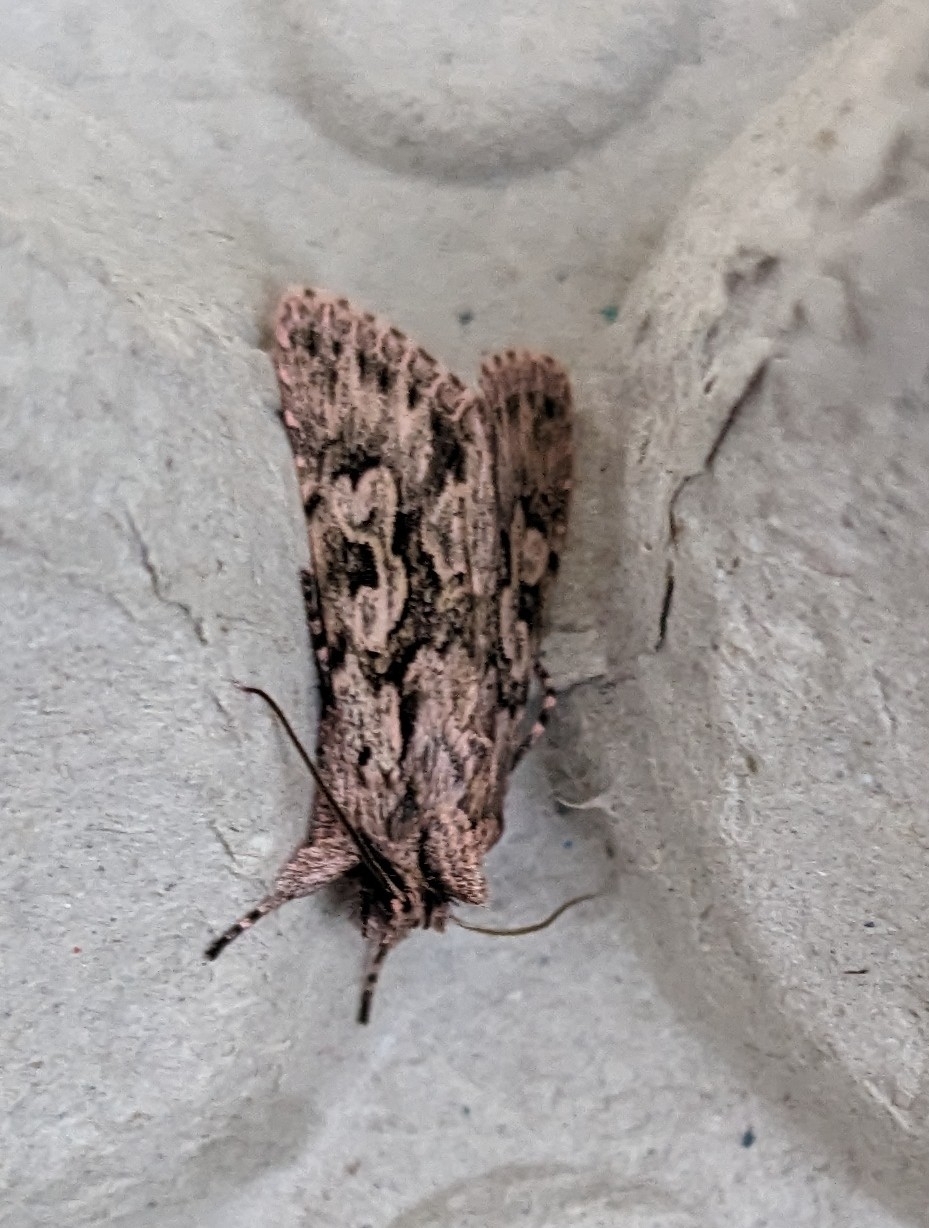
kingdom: Animalia
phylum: Arthropoda
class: Insecta
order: Lepidoptera
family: Noctuidae
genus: Xylocampa
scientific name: Xylocampa areola
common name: Early grey
